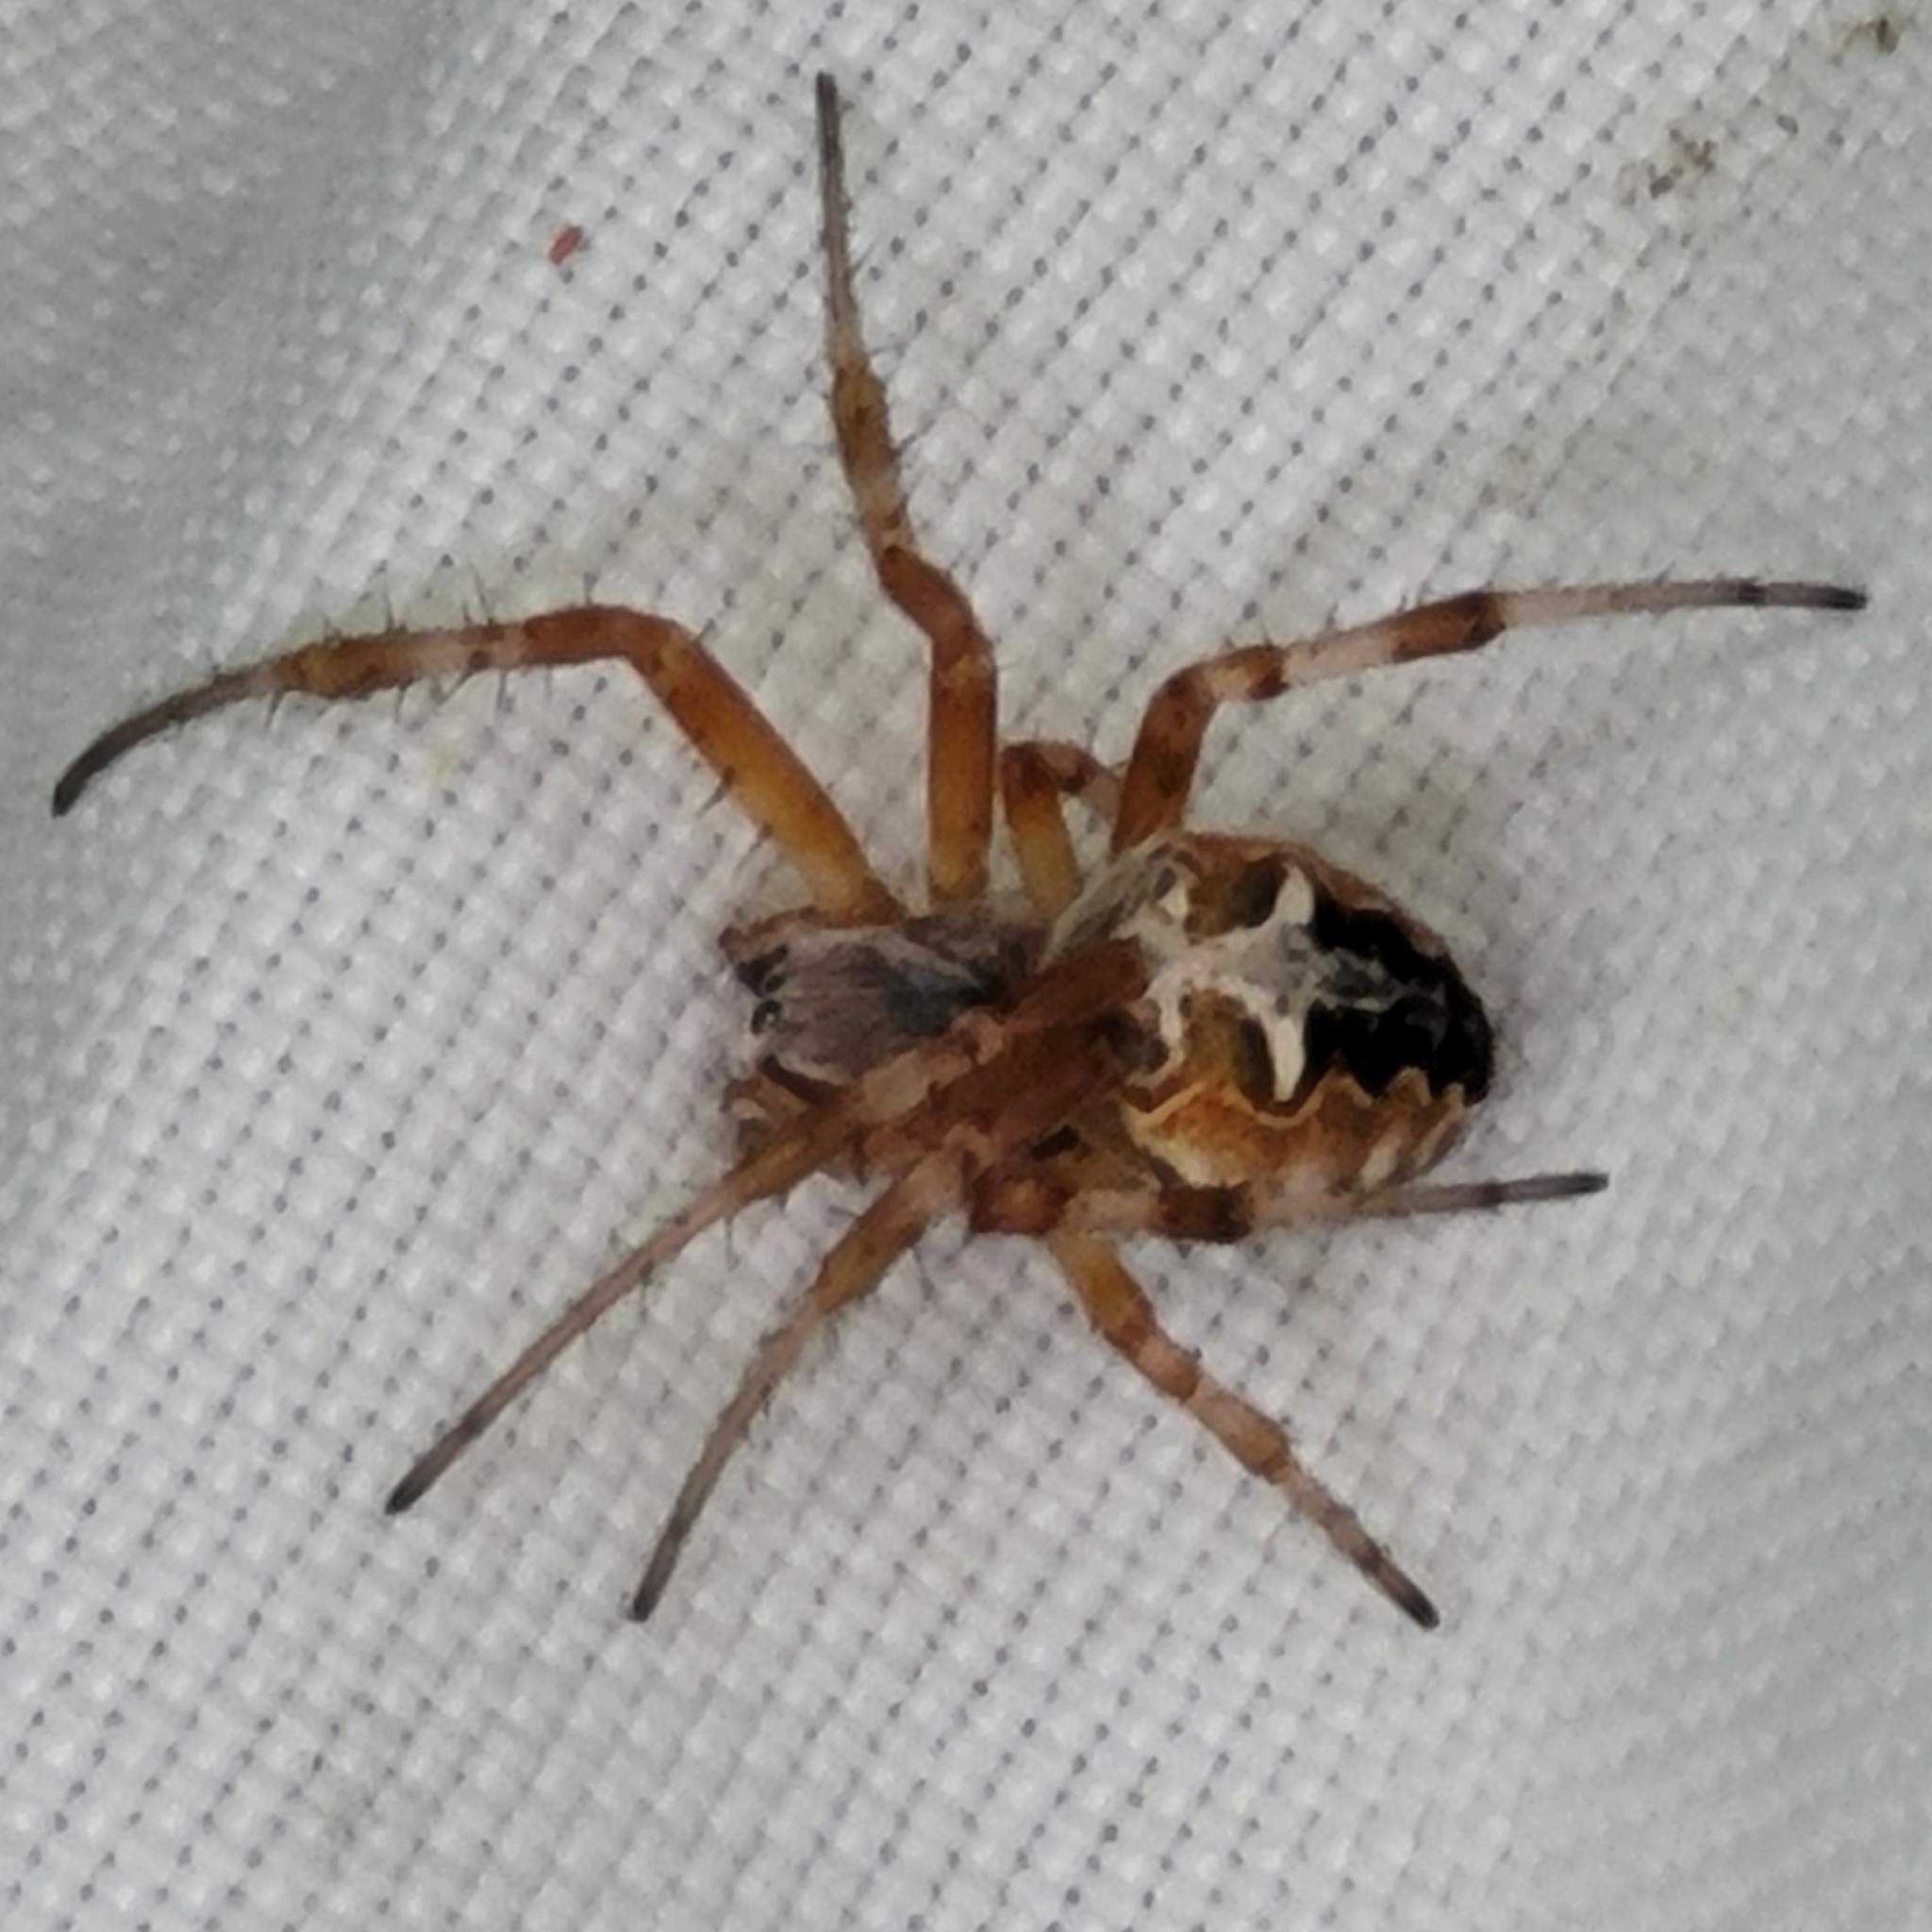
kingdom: Animalia
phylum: Arthropoda
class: Arachnida
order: Araneae
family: Araneidae
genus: Metepeira
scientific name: Metepeira labyrinthea
